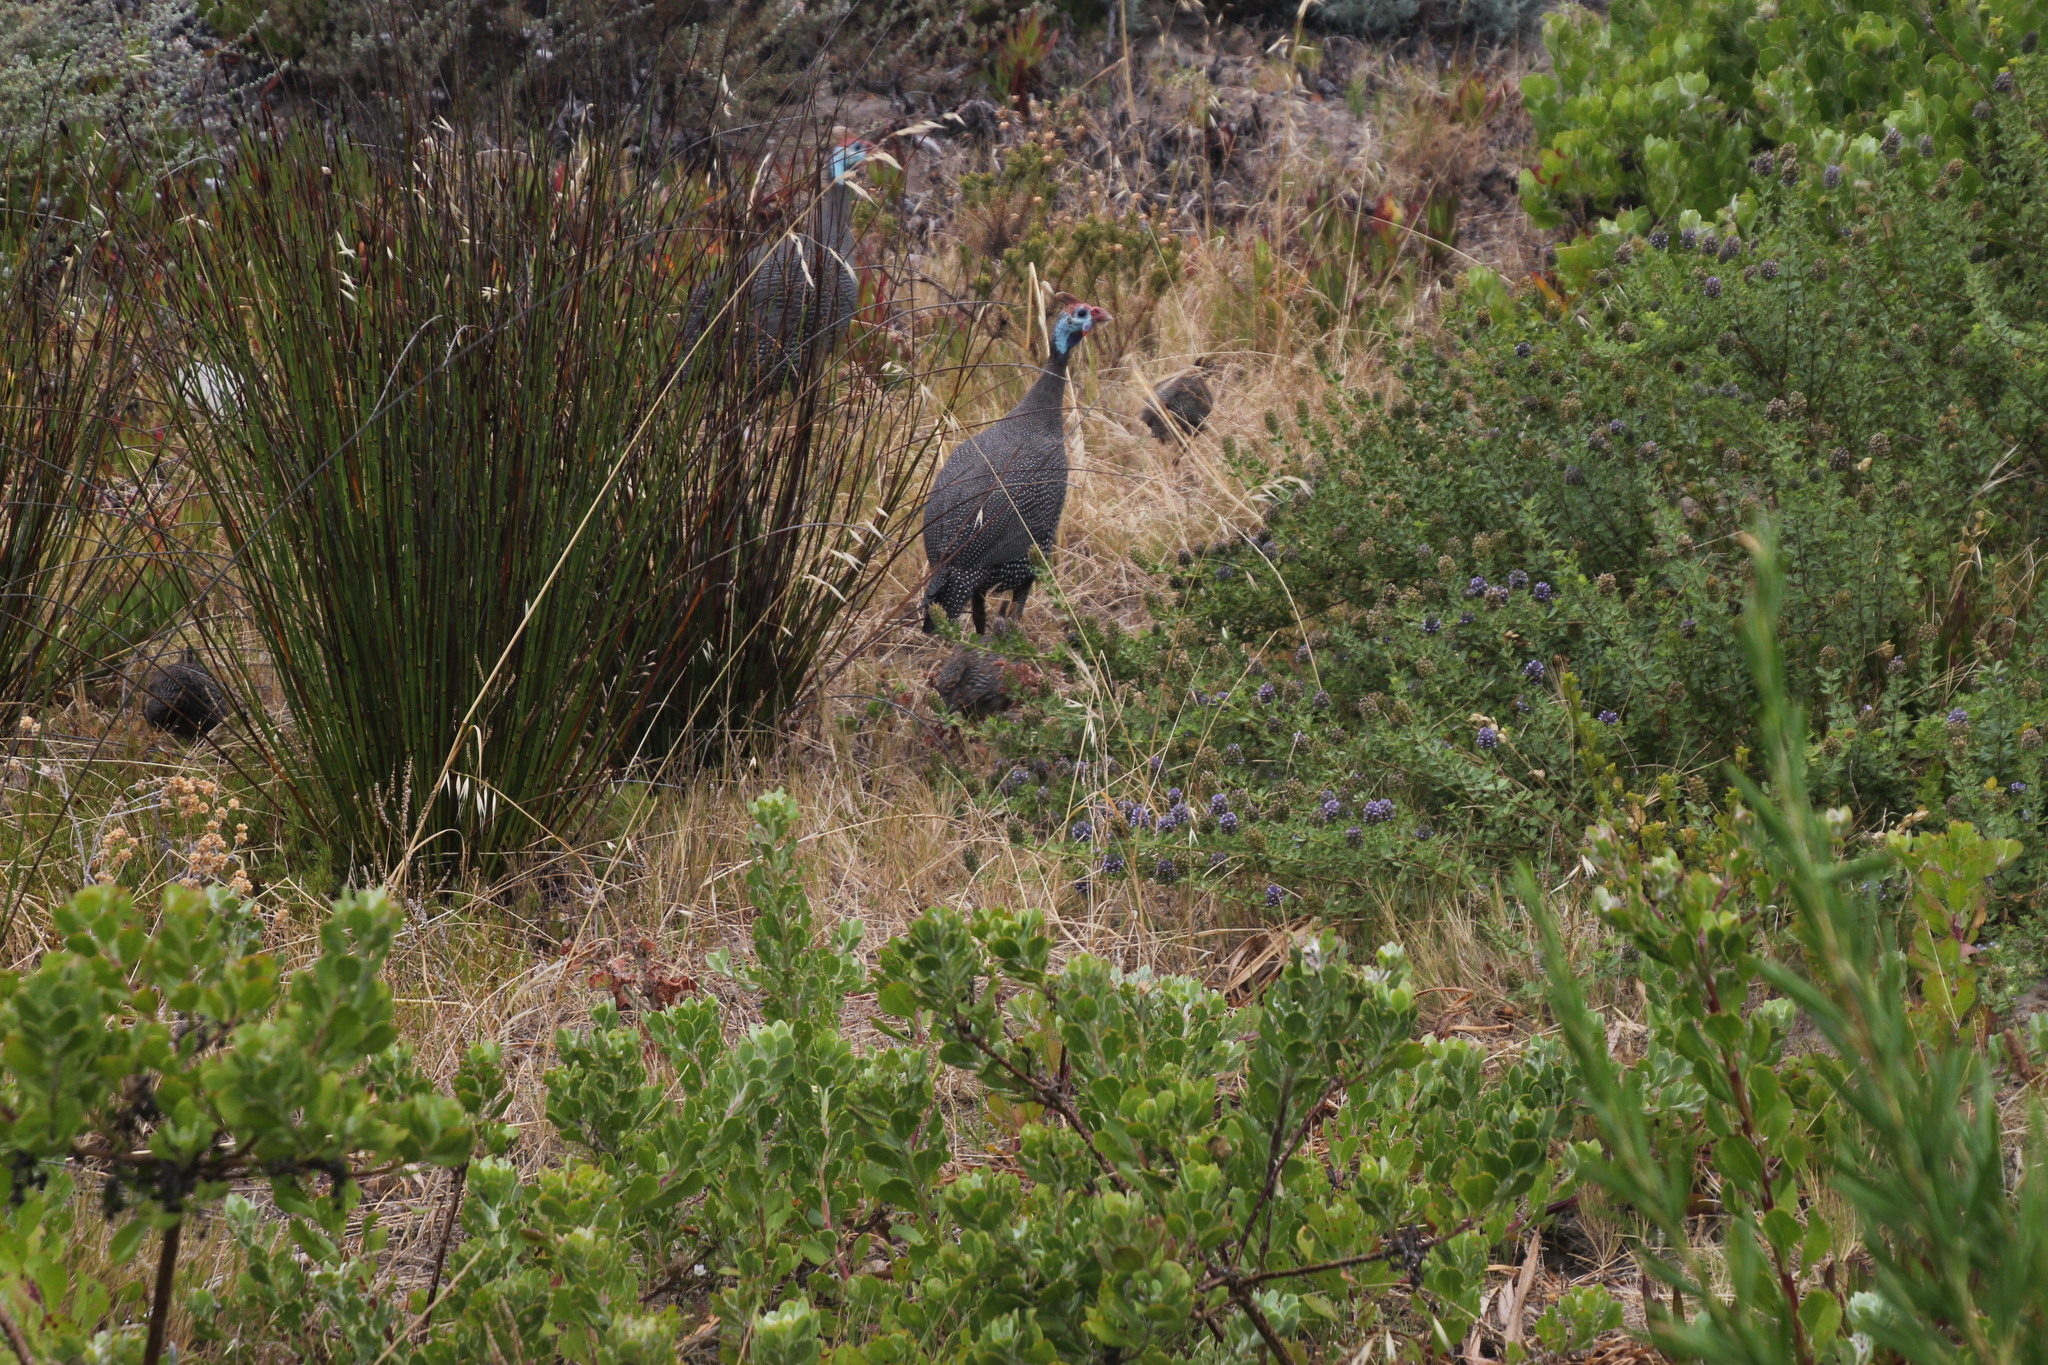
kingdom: Animalia
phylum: Chordata
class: Aves
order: Galliformes
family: Numididae
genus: Numida
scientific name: Numida meleagris
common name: Helmeted guineafowl
